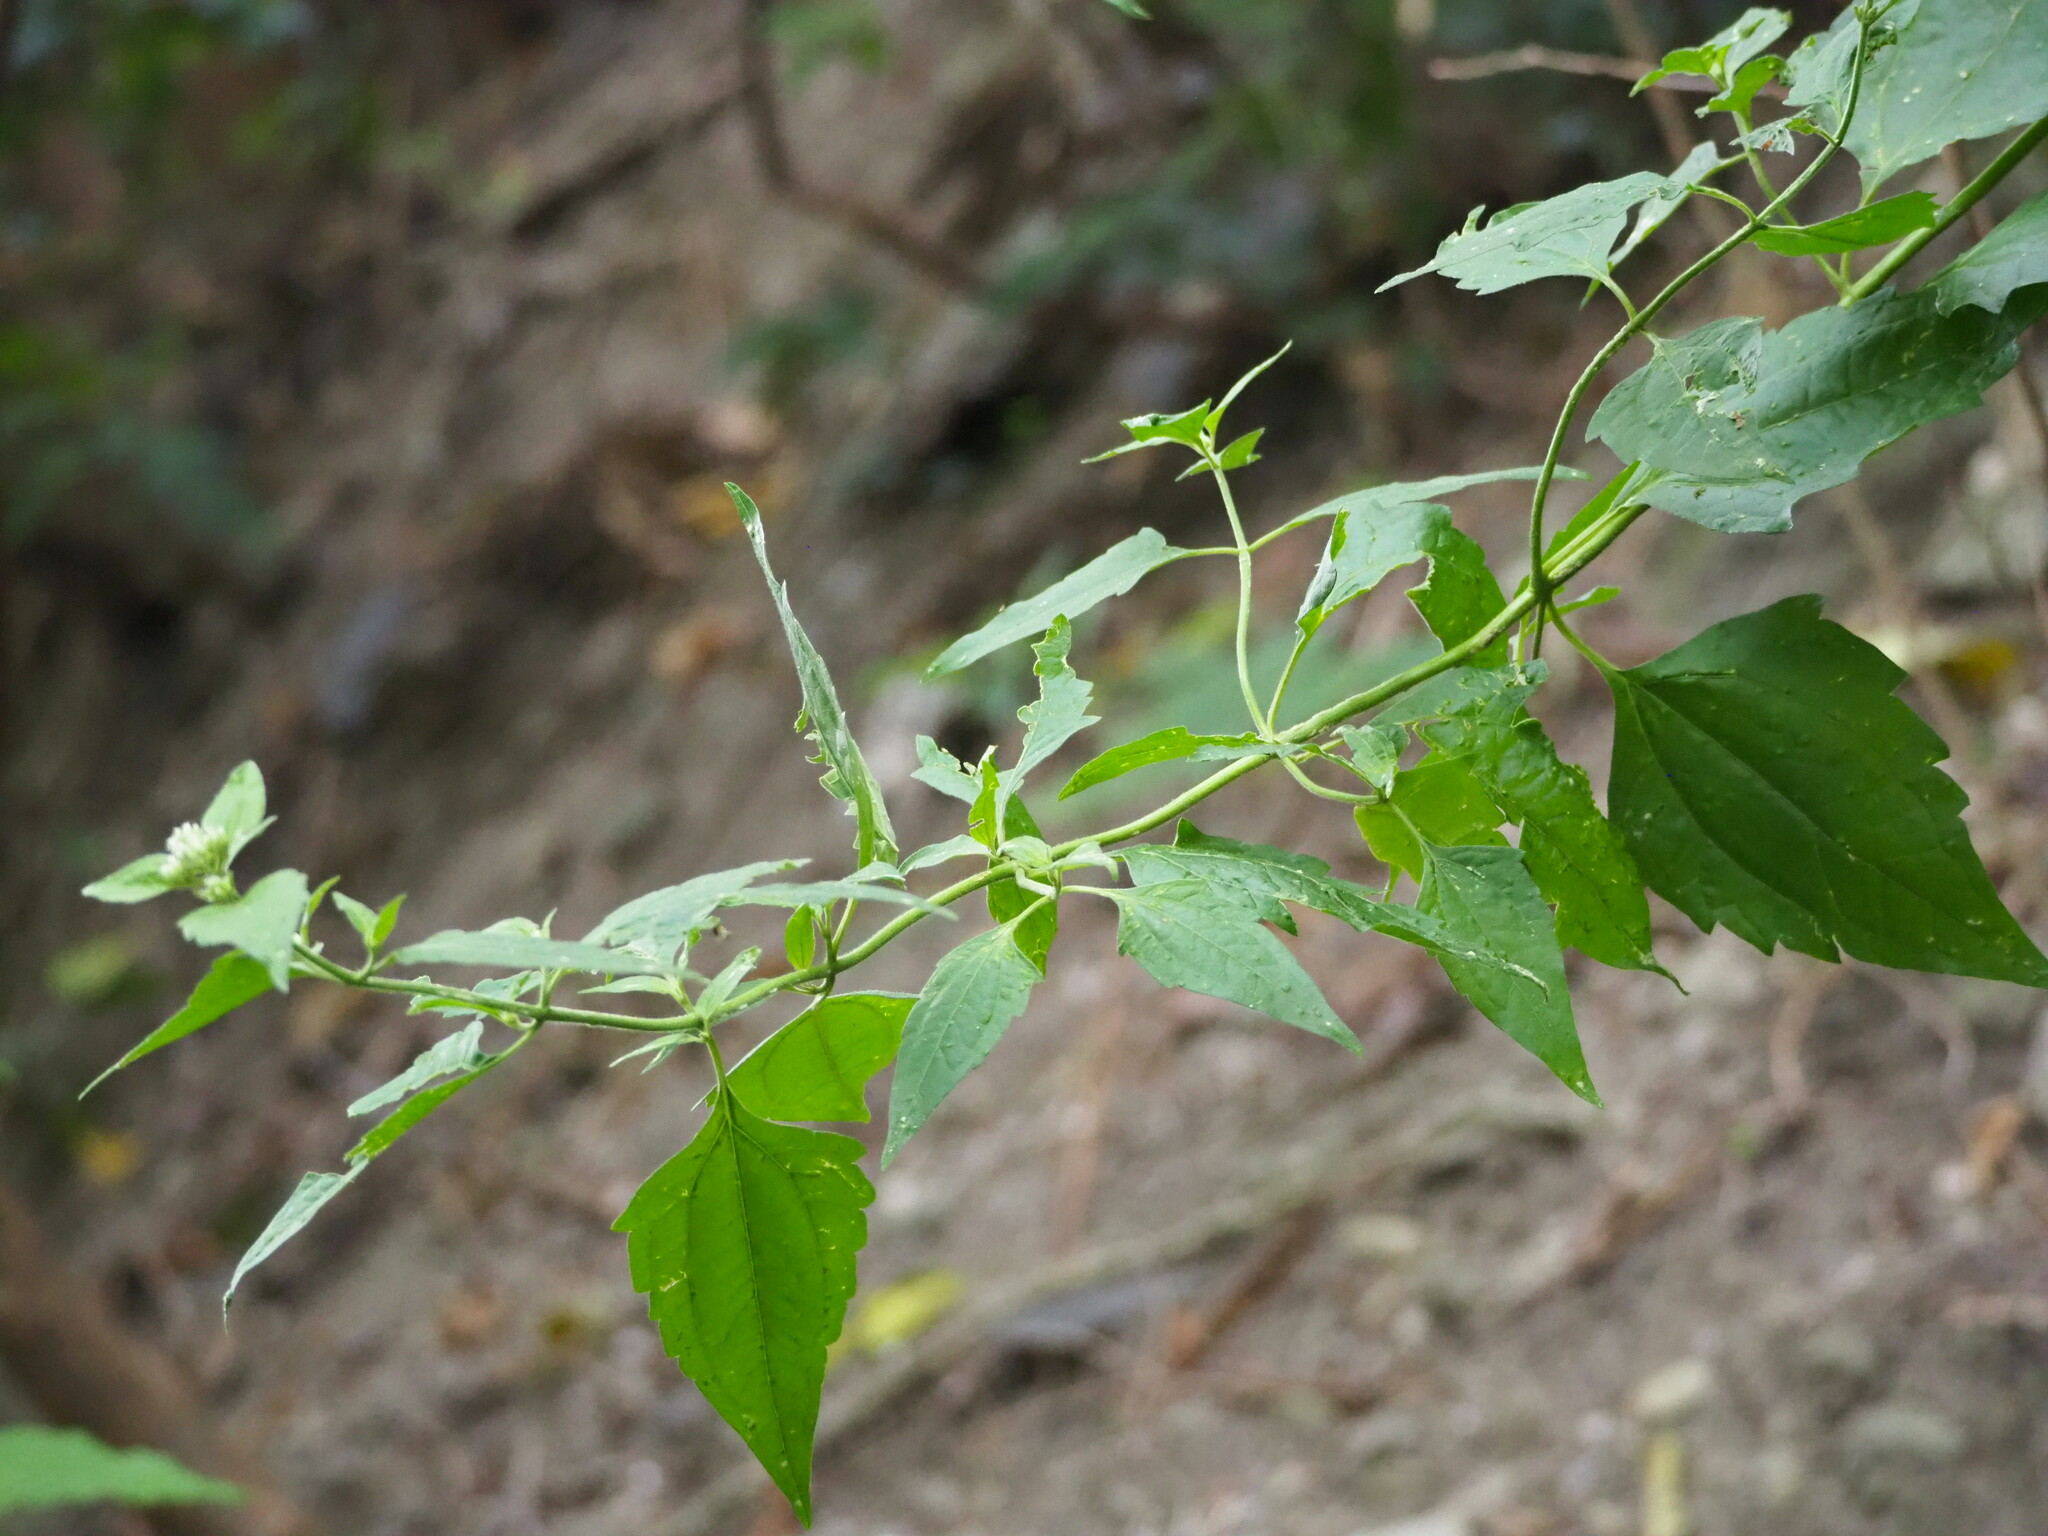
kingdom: Plantae
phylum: Tracheophyta
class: Magnoliopsida
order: Asterales
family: Asteraceae
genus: Chromolaena
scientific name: Chromolaena odorata
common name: Siamweed
